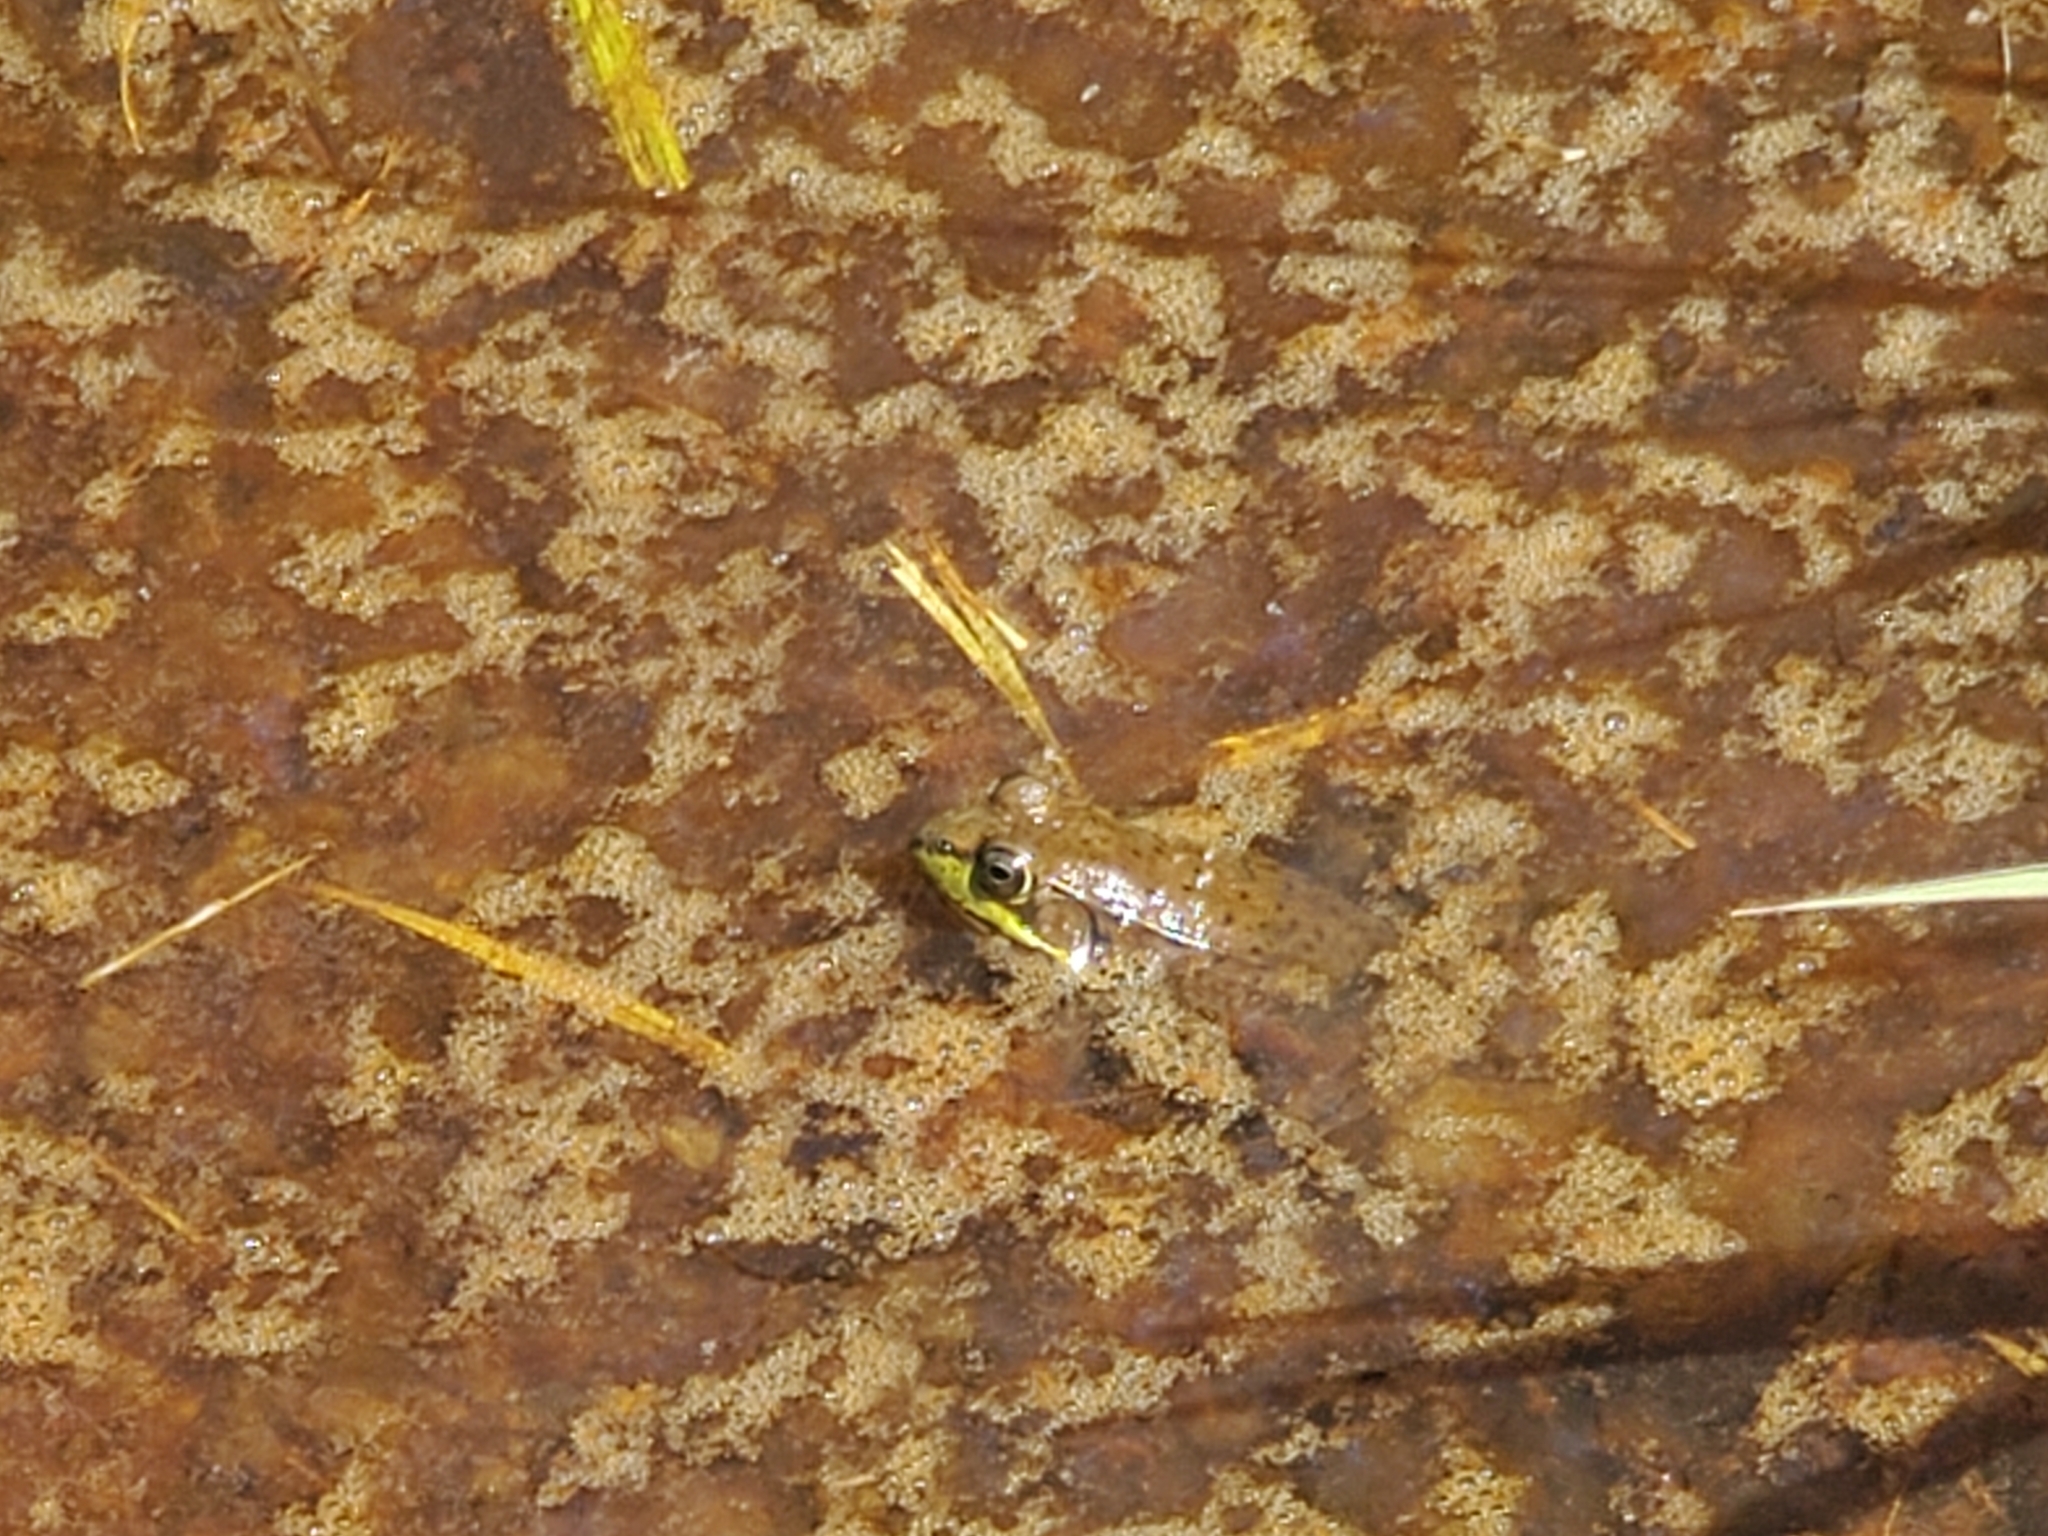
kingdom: Animalia
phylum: Chordata
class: Amphibia
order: Anura
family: Ranidae
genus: Lithobates
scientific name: Lithobates clamitans
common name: Green frog
